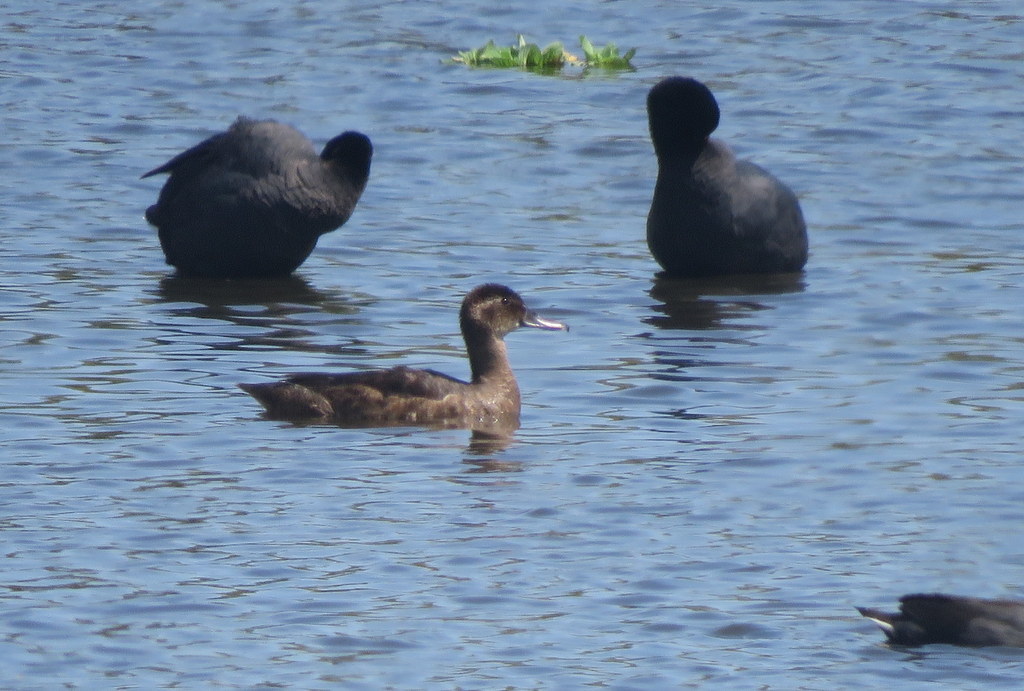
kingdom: Animalia
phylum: Chordata
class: Aves
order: Anseriformes
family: Anatidae
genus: Heteronetta
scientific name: Heteronetta atricapilla
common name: Black-headed duck
